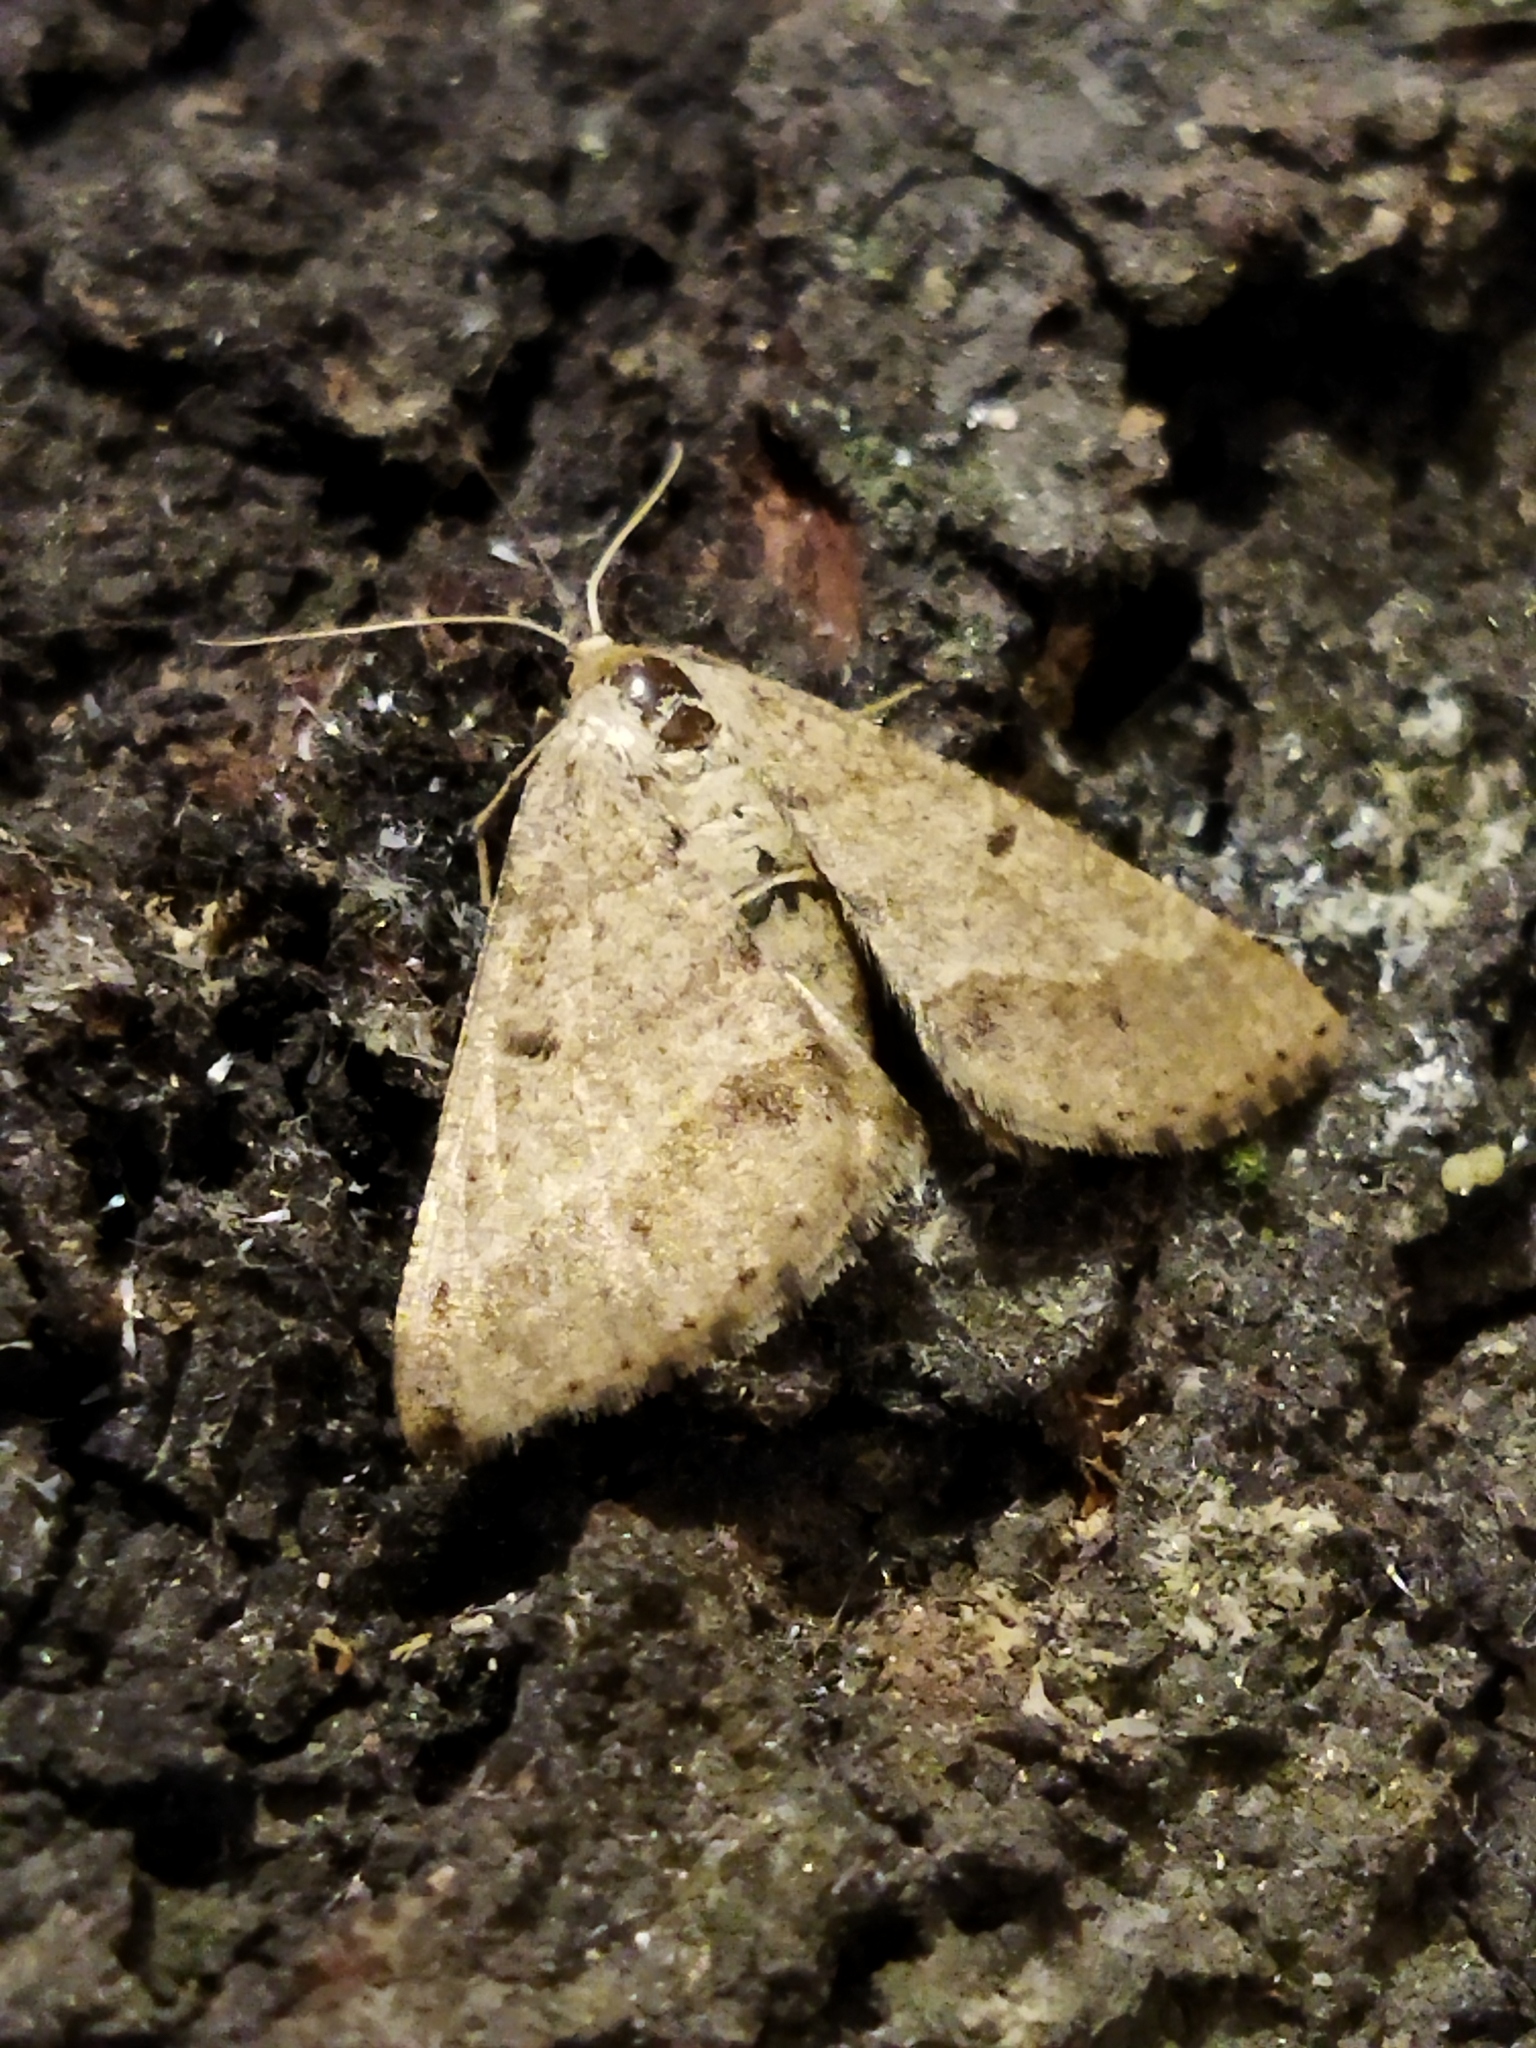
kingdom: Animalia
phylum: Arthropoda
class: Insecta
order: Lepidoptera
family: Geometridae
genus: Tephrina
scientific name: Tephrina murinaria
